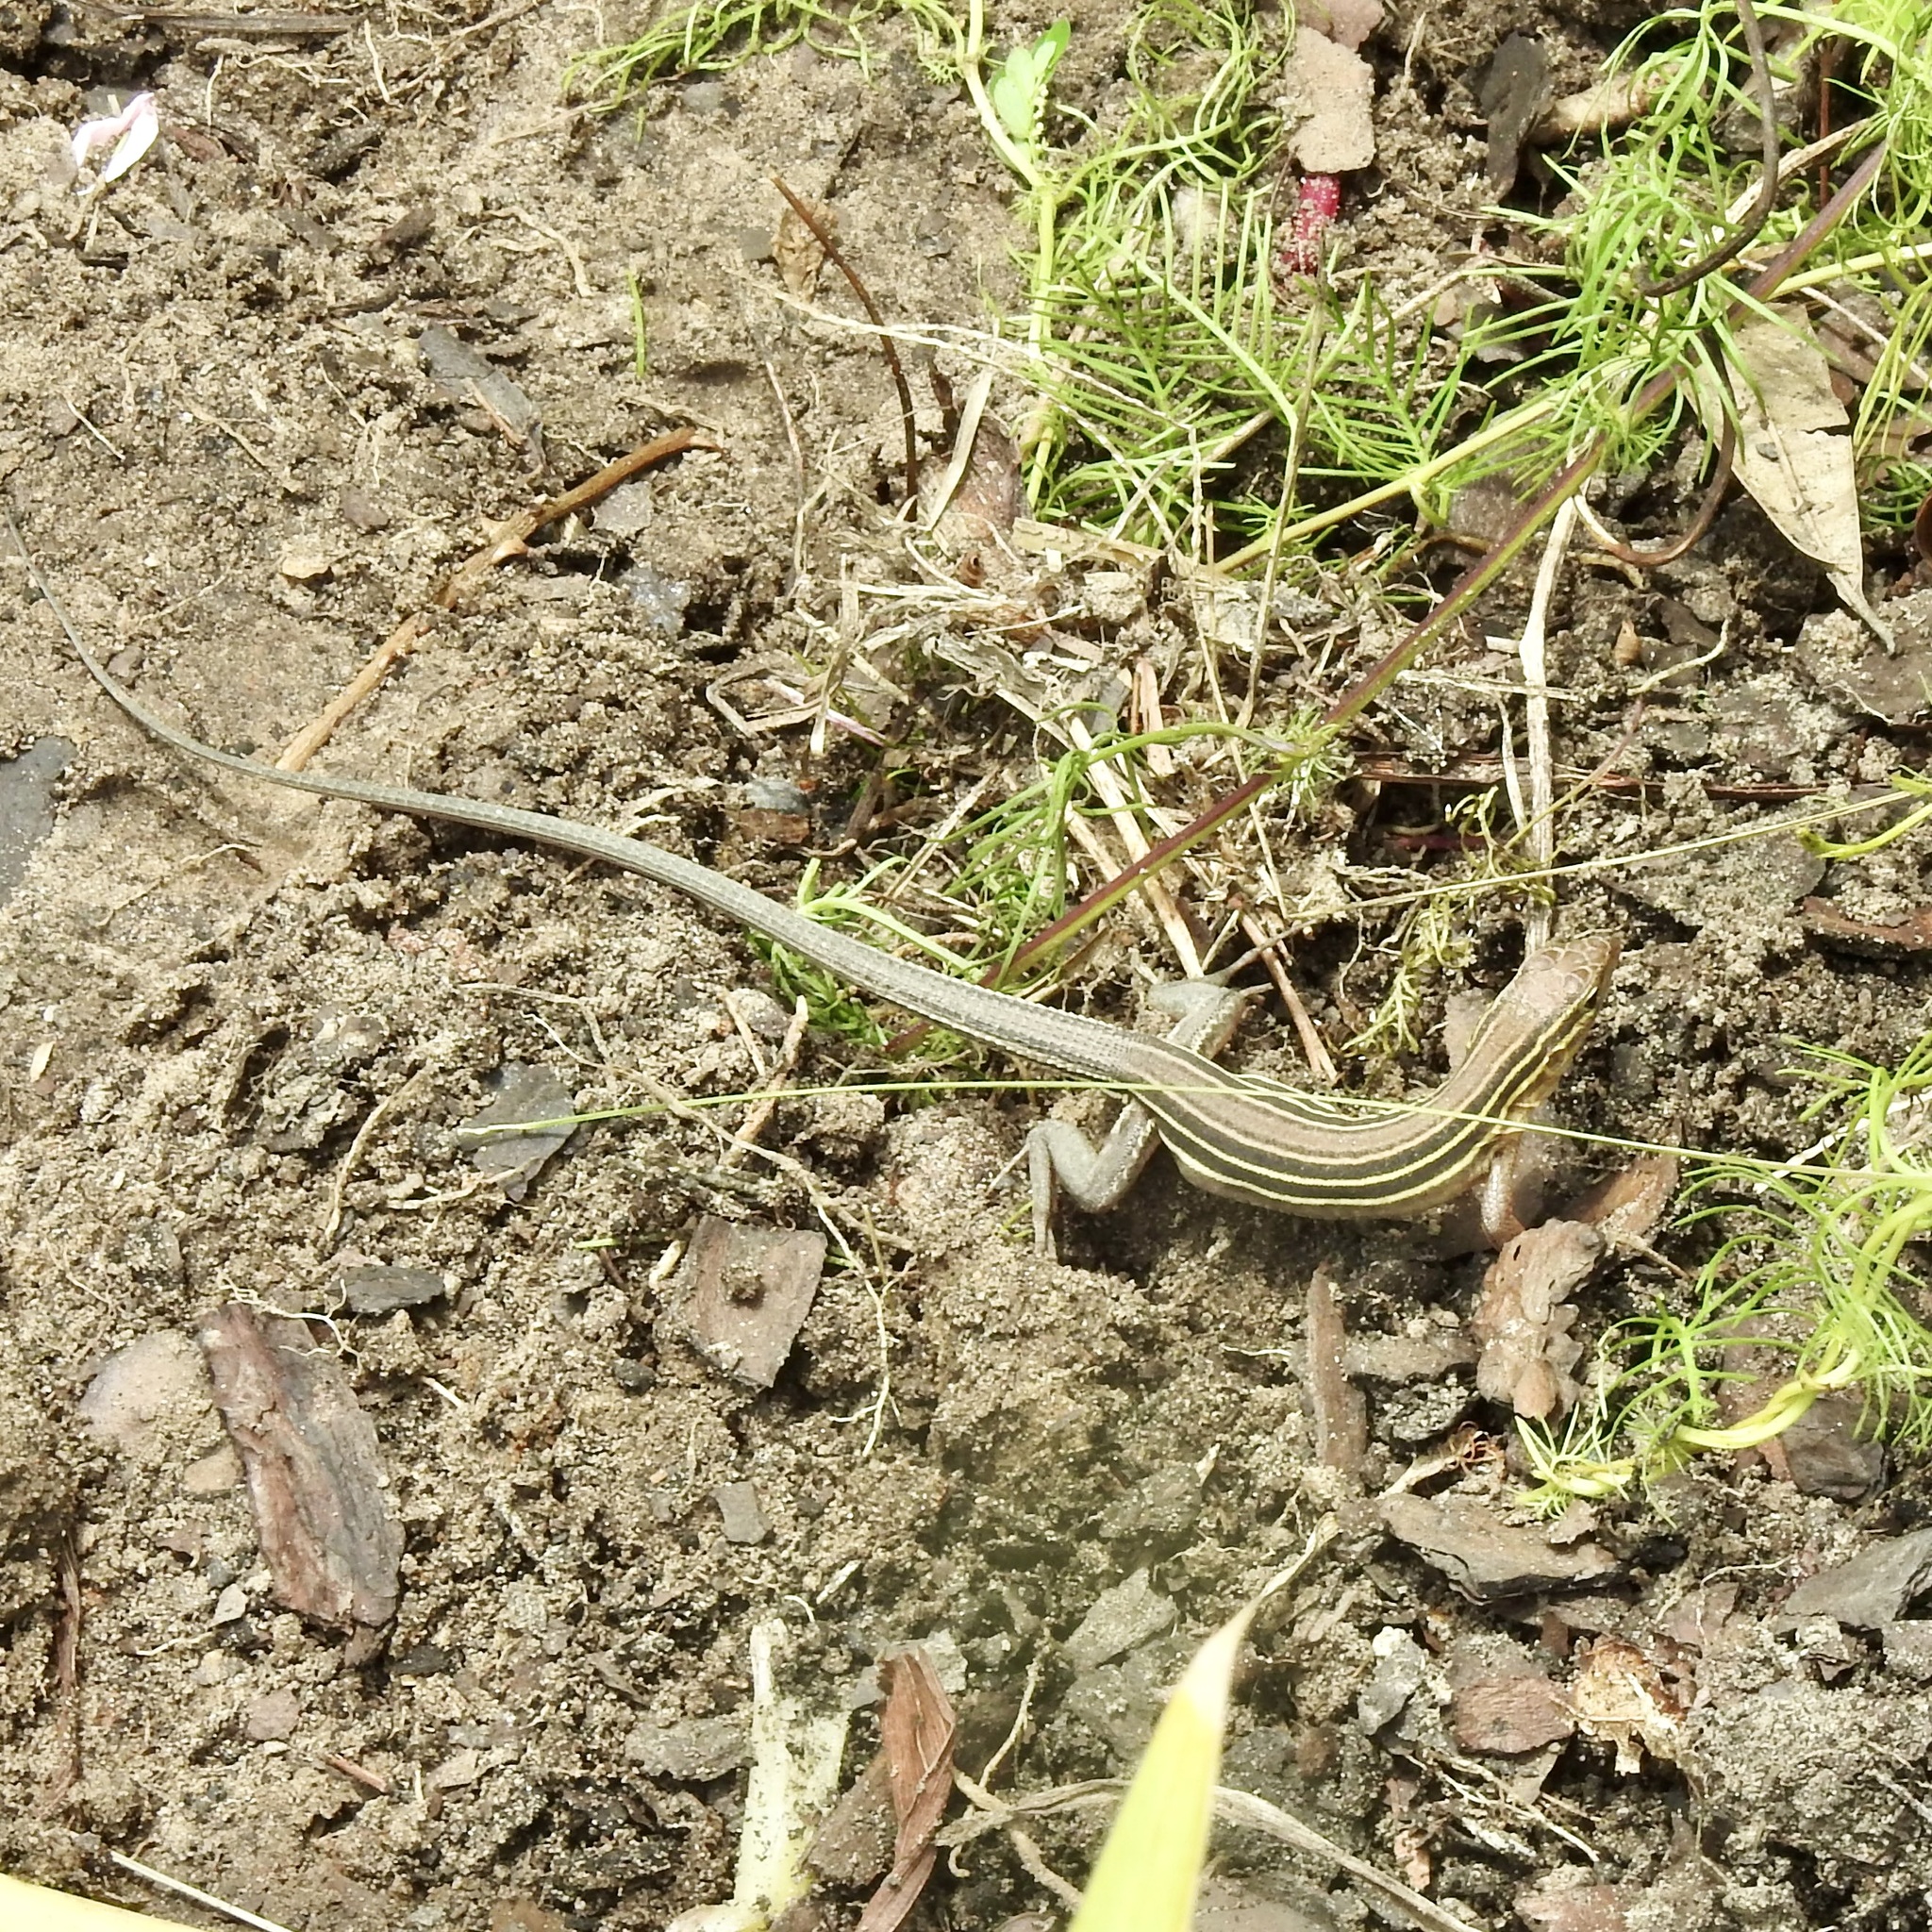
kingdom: Animalia
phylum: Chordata
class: Squamata
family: Teiidae
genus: Aspidoscelis
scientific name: Aspidoscelis sexlineatus
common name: Six-lined racerunner
